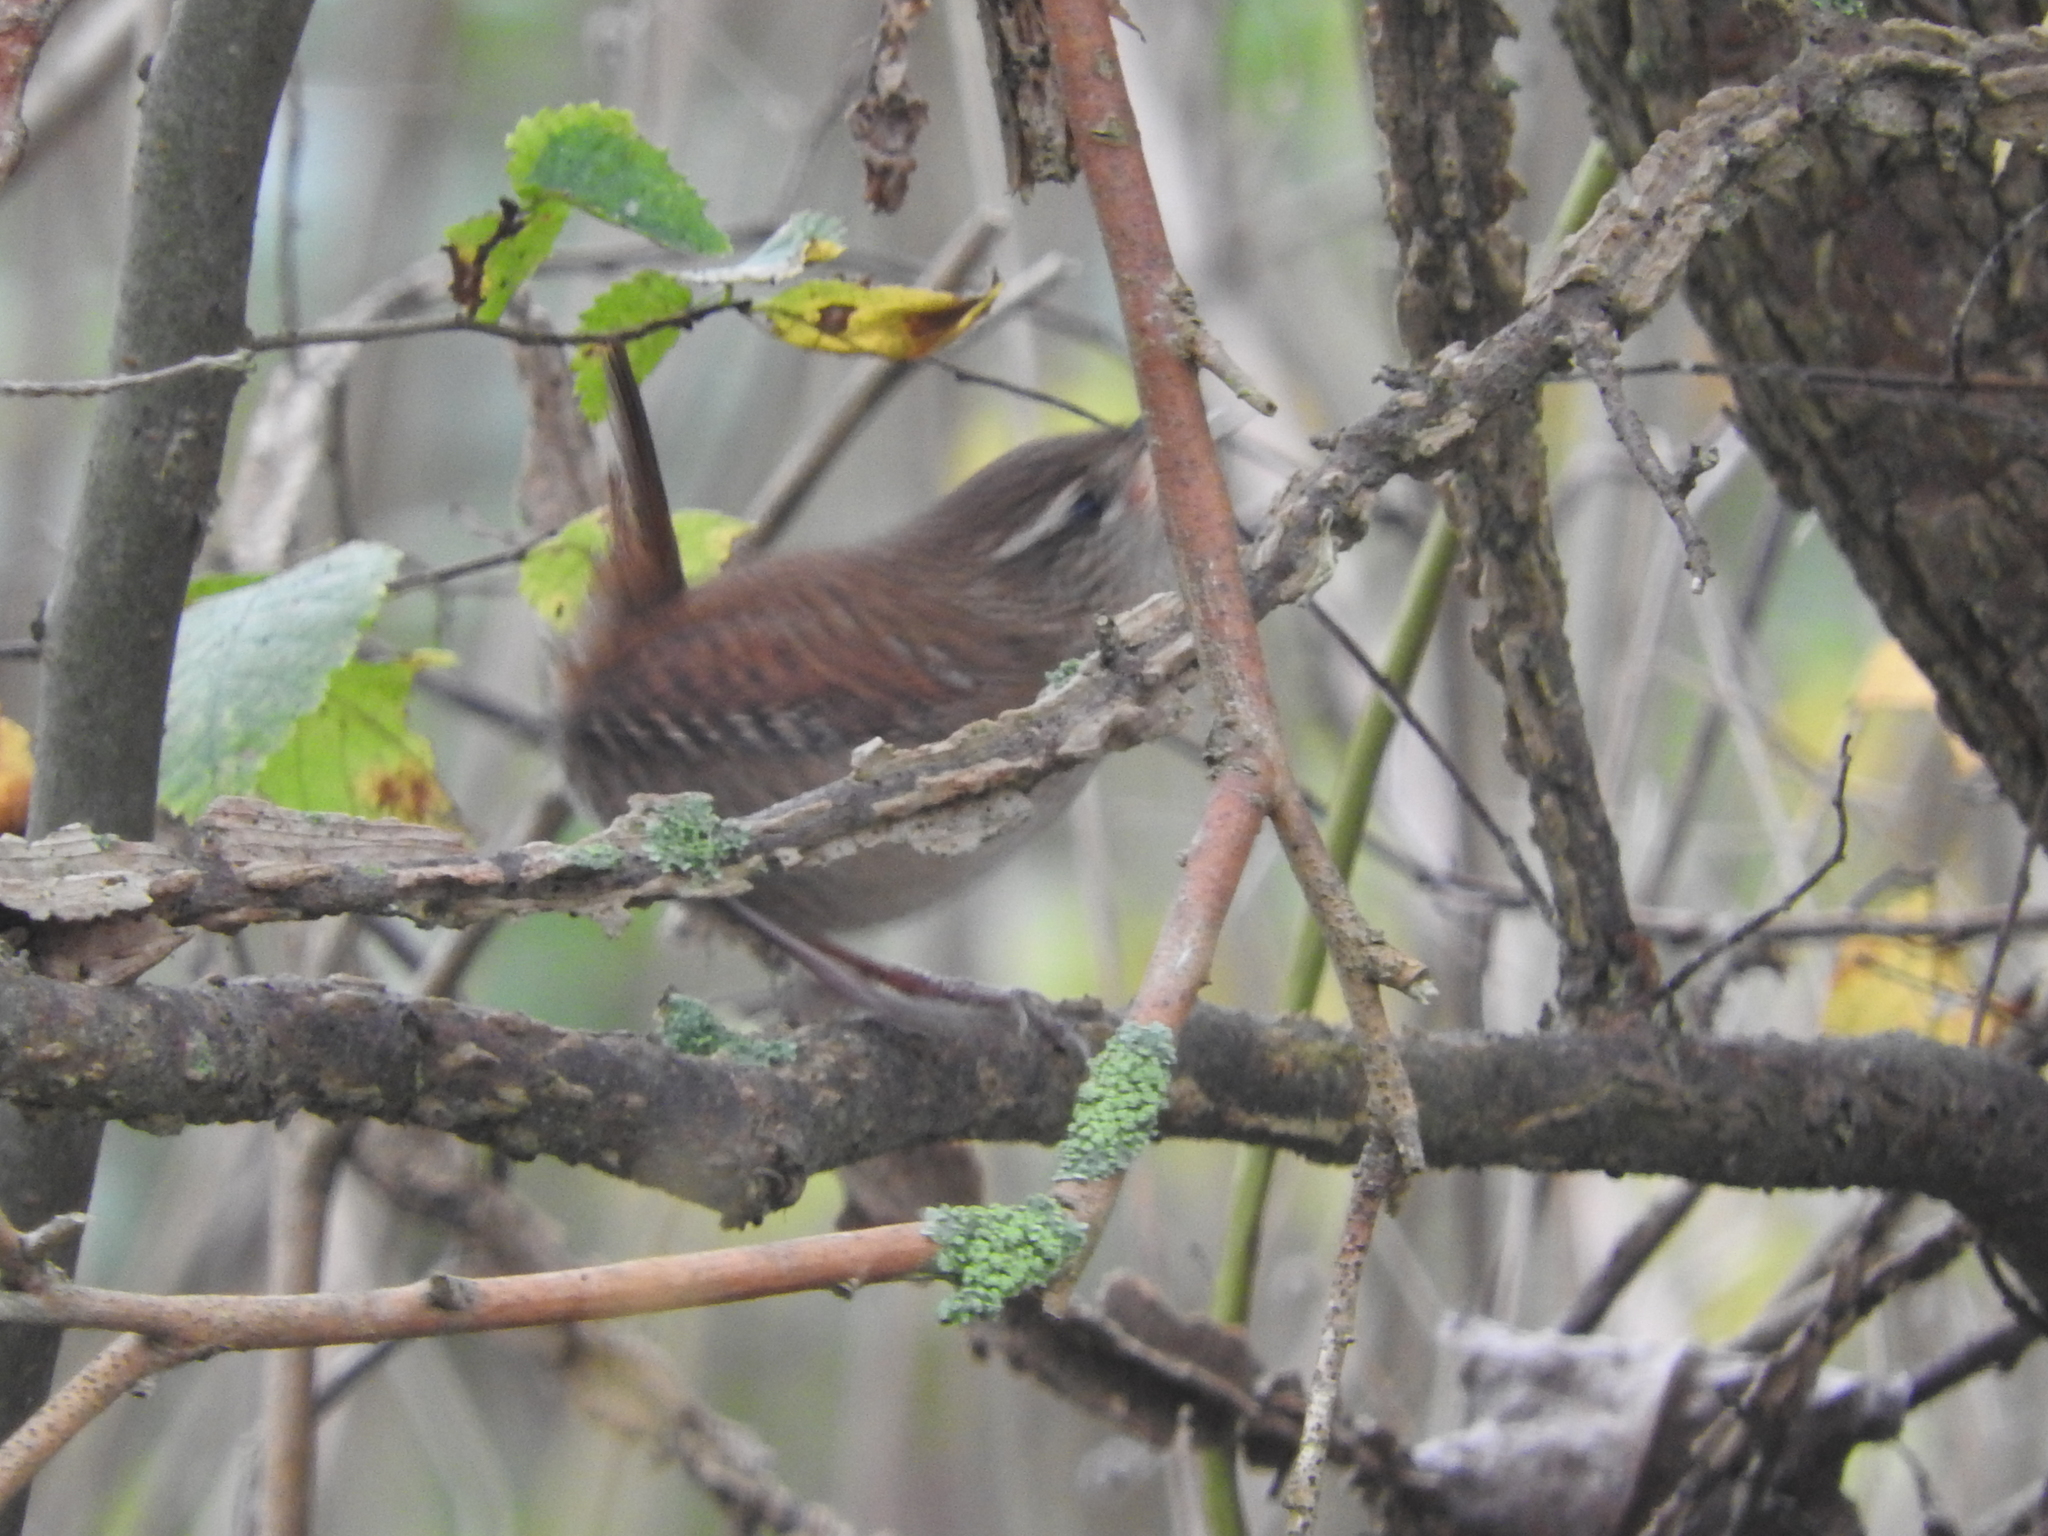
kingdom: Animalia
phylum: Chordata
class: Aves
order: Passeriformes
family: Troglodytidae
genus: Troglodytes
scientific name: Troglodytes troglodytes
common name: Eurasian wren
